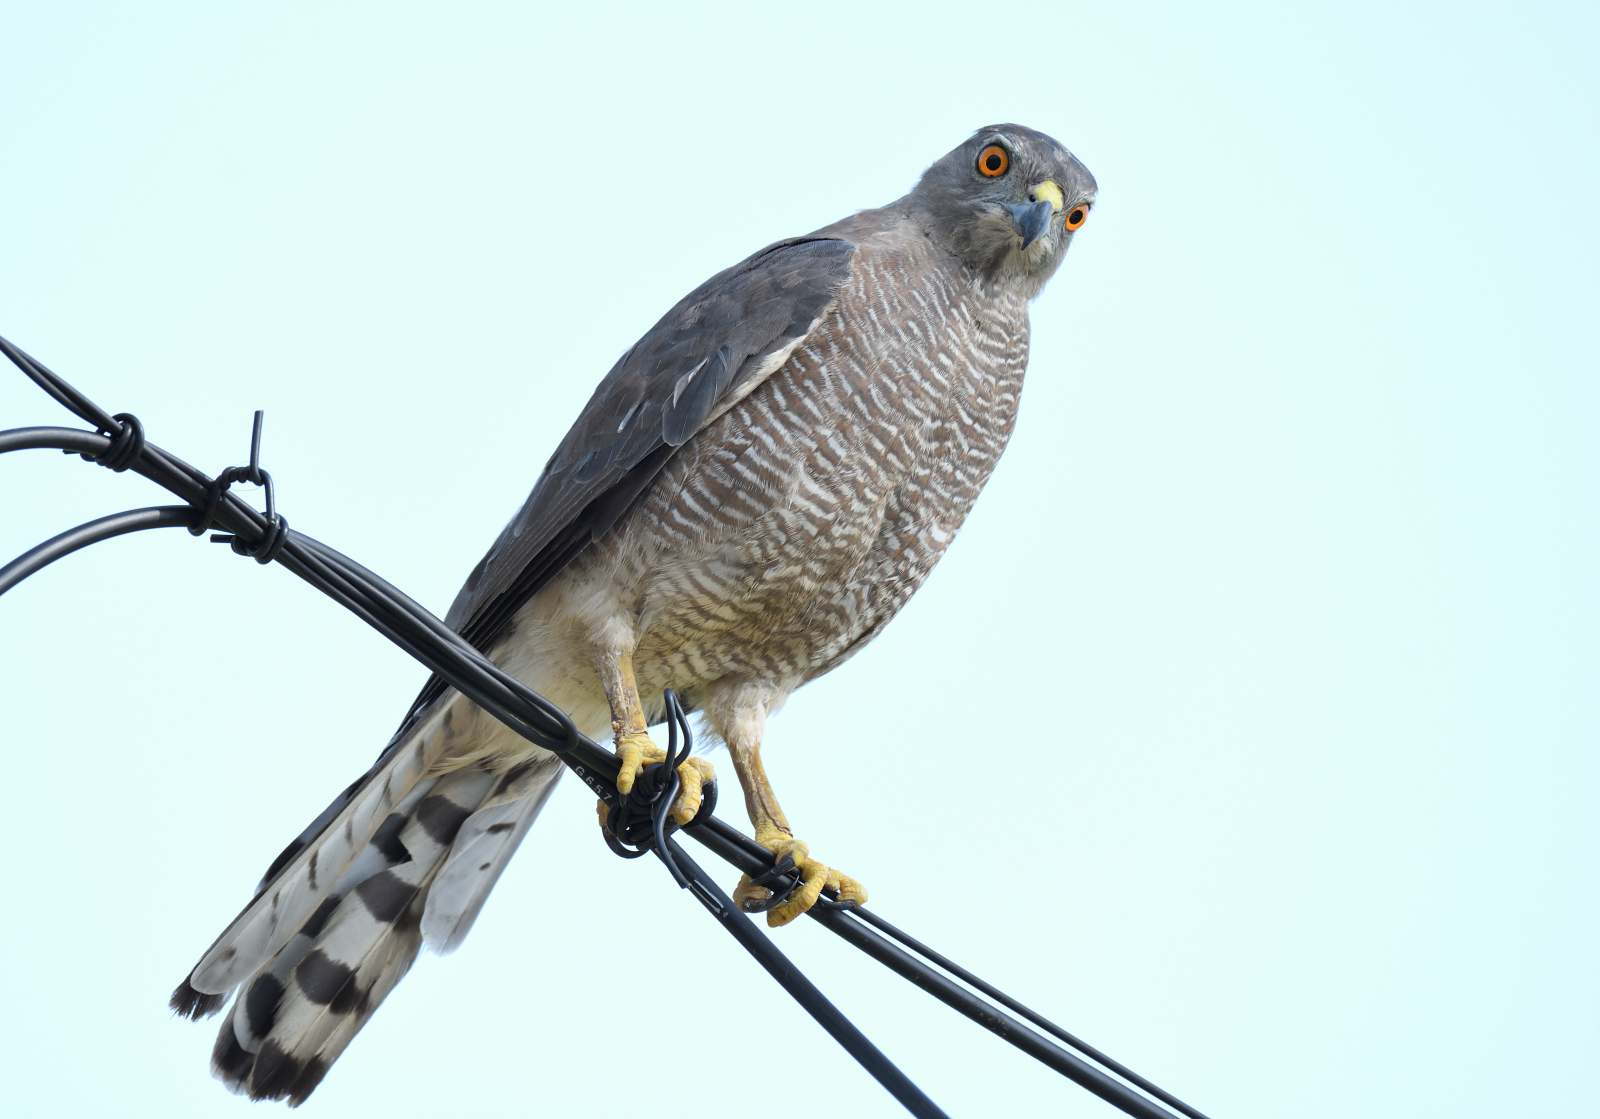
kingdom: Animalia
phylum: Chordata
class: Aves
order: Accipitriformes
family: Accipitridae
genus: Accipiter
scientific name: Accipiter badius
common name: Shikra
